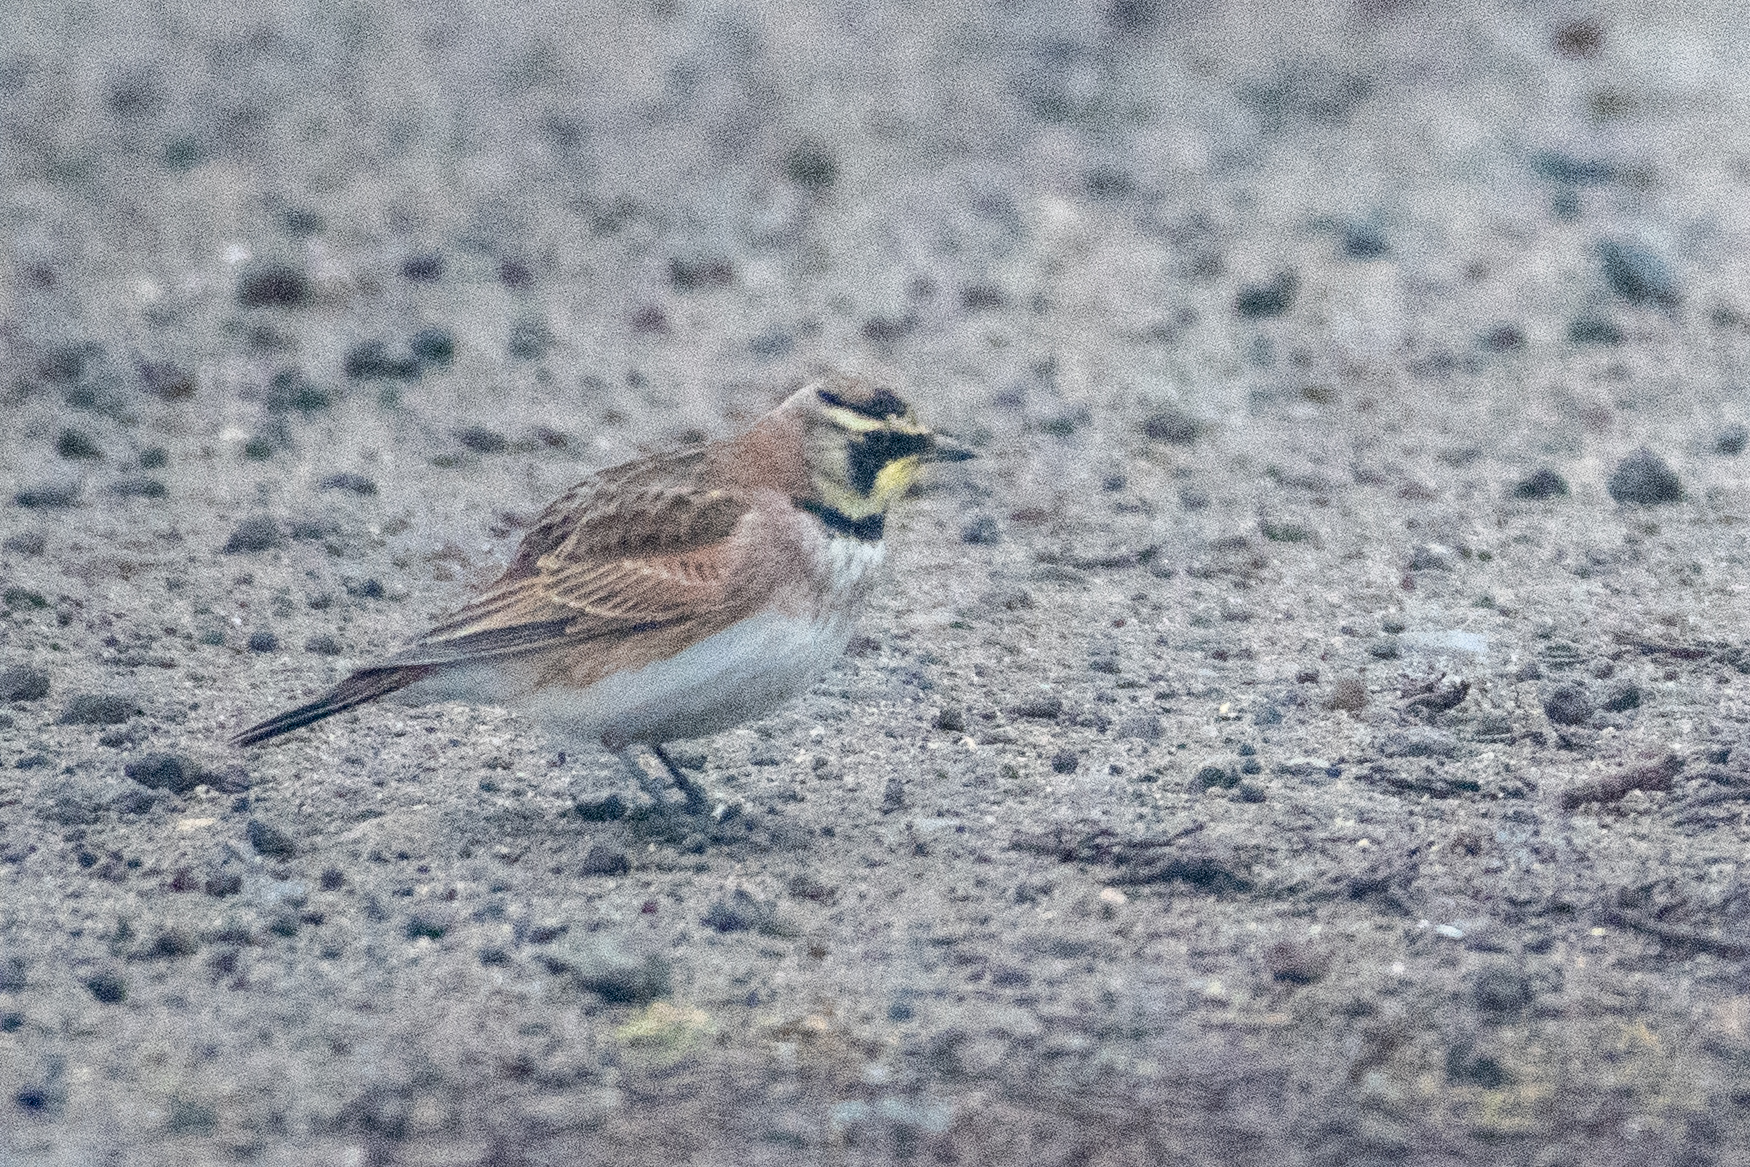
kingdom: Animalia
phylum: Chordata
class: Aves
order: Passeriformes
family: Alaudidae
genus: Eremophila
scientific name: Eremophila alpestris
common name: Horned lark
